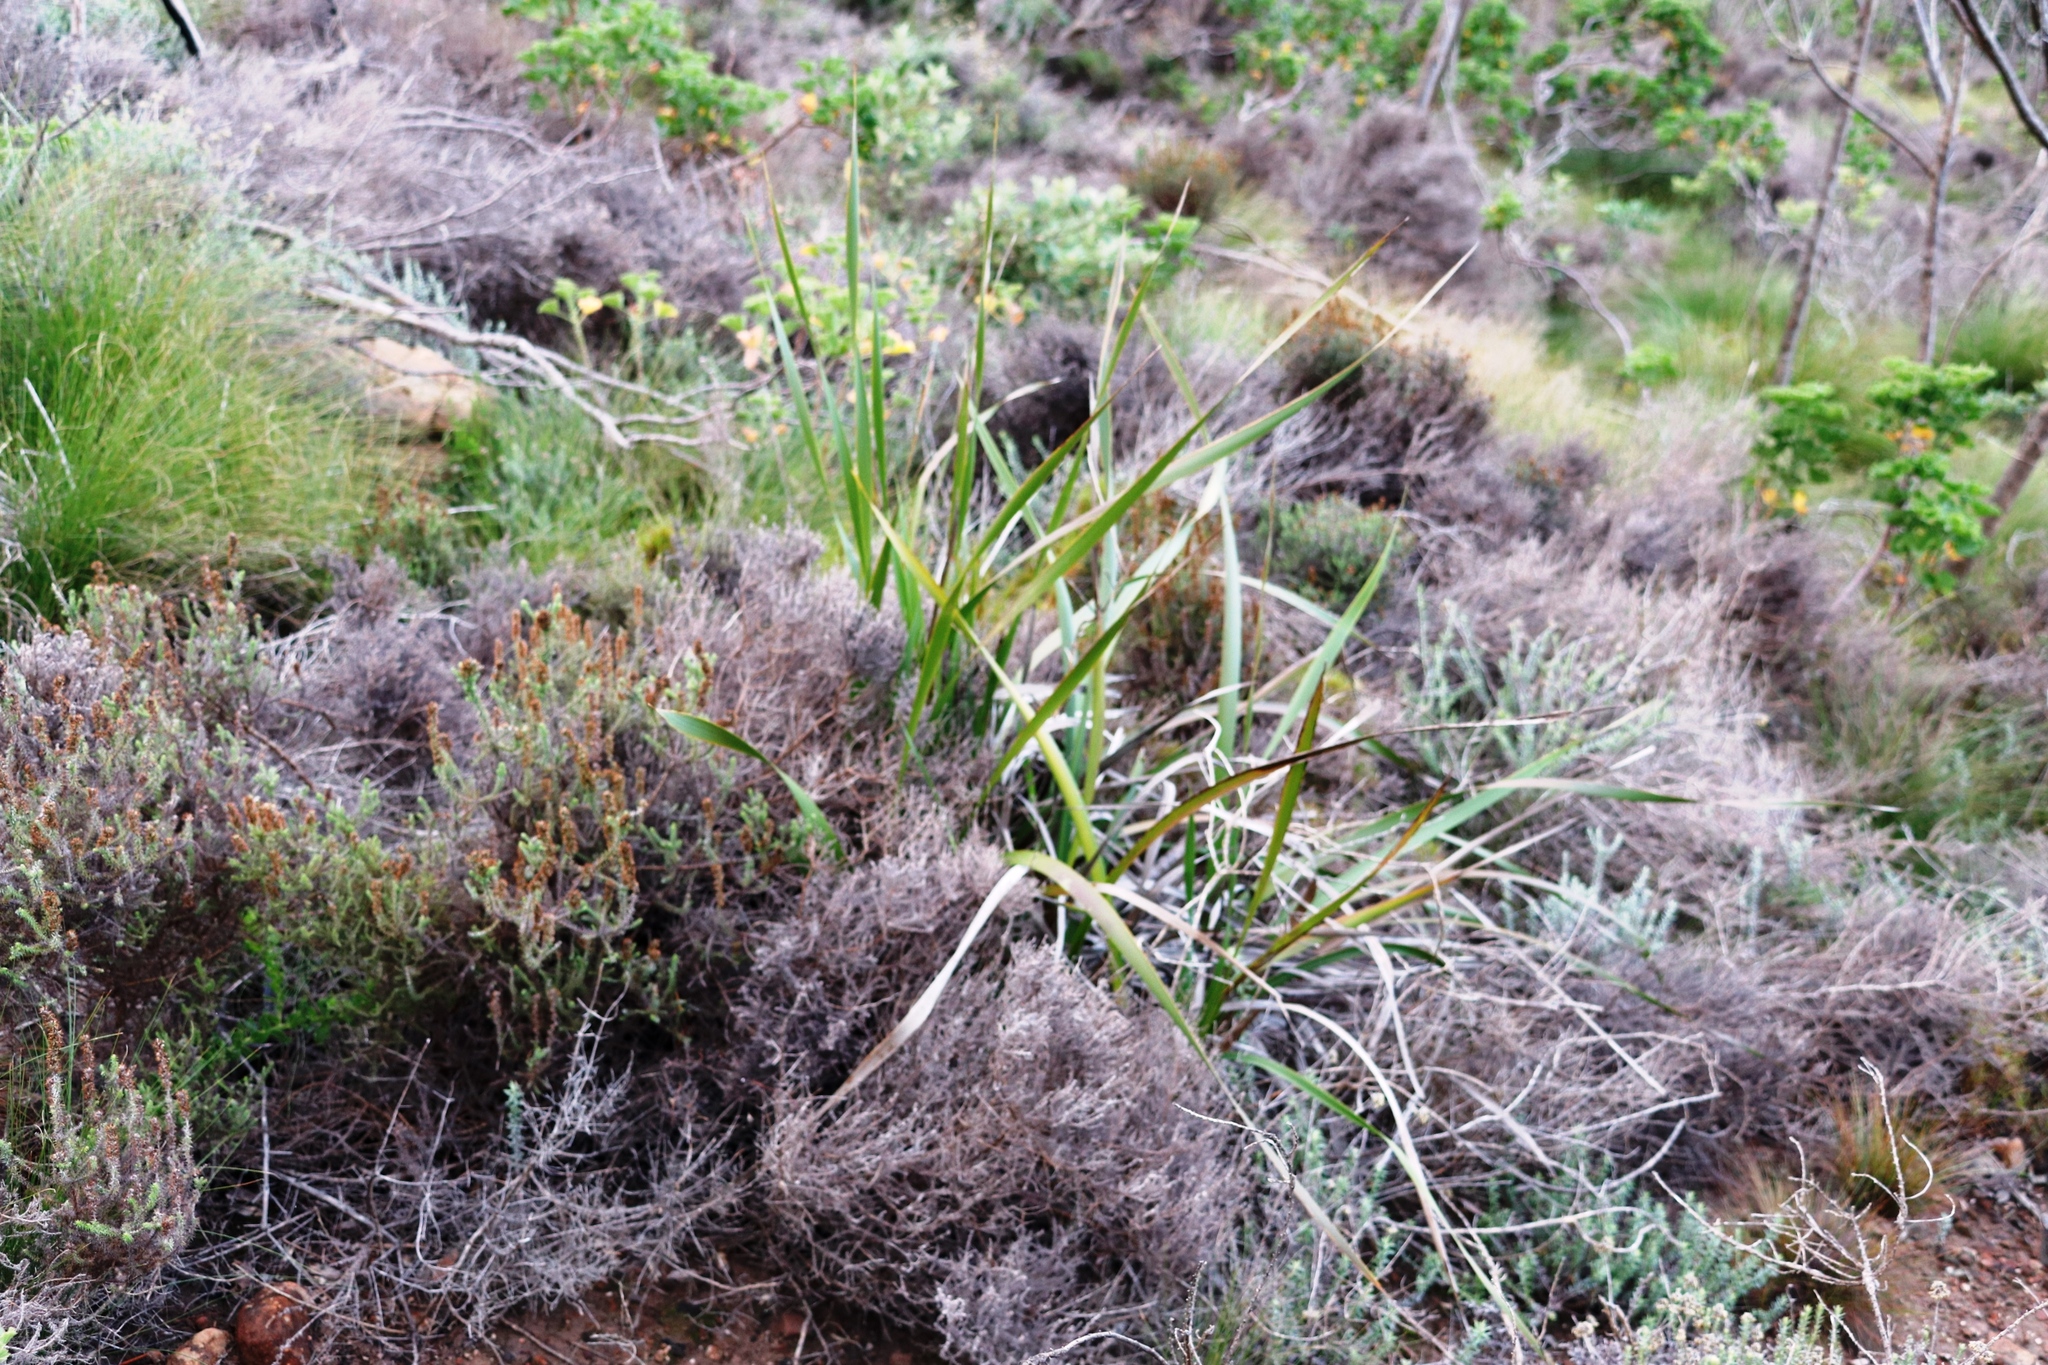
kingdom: Plantae
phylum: Tracheophyta
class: Liliopsida
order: Asparagales
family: Iridaceae
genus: Aristea
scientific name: Aristea capitata
